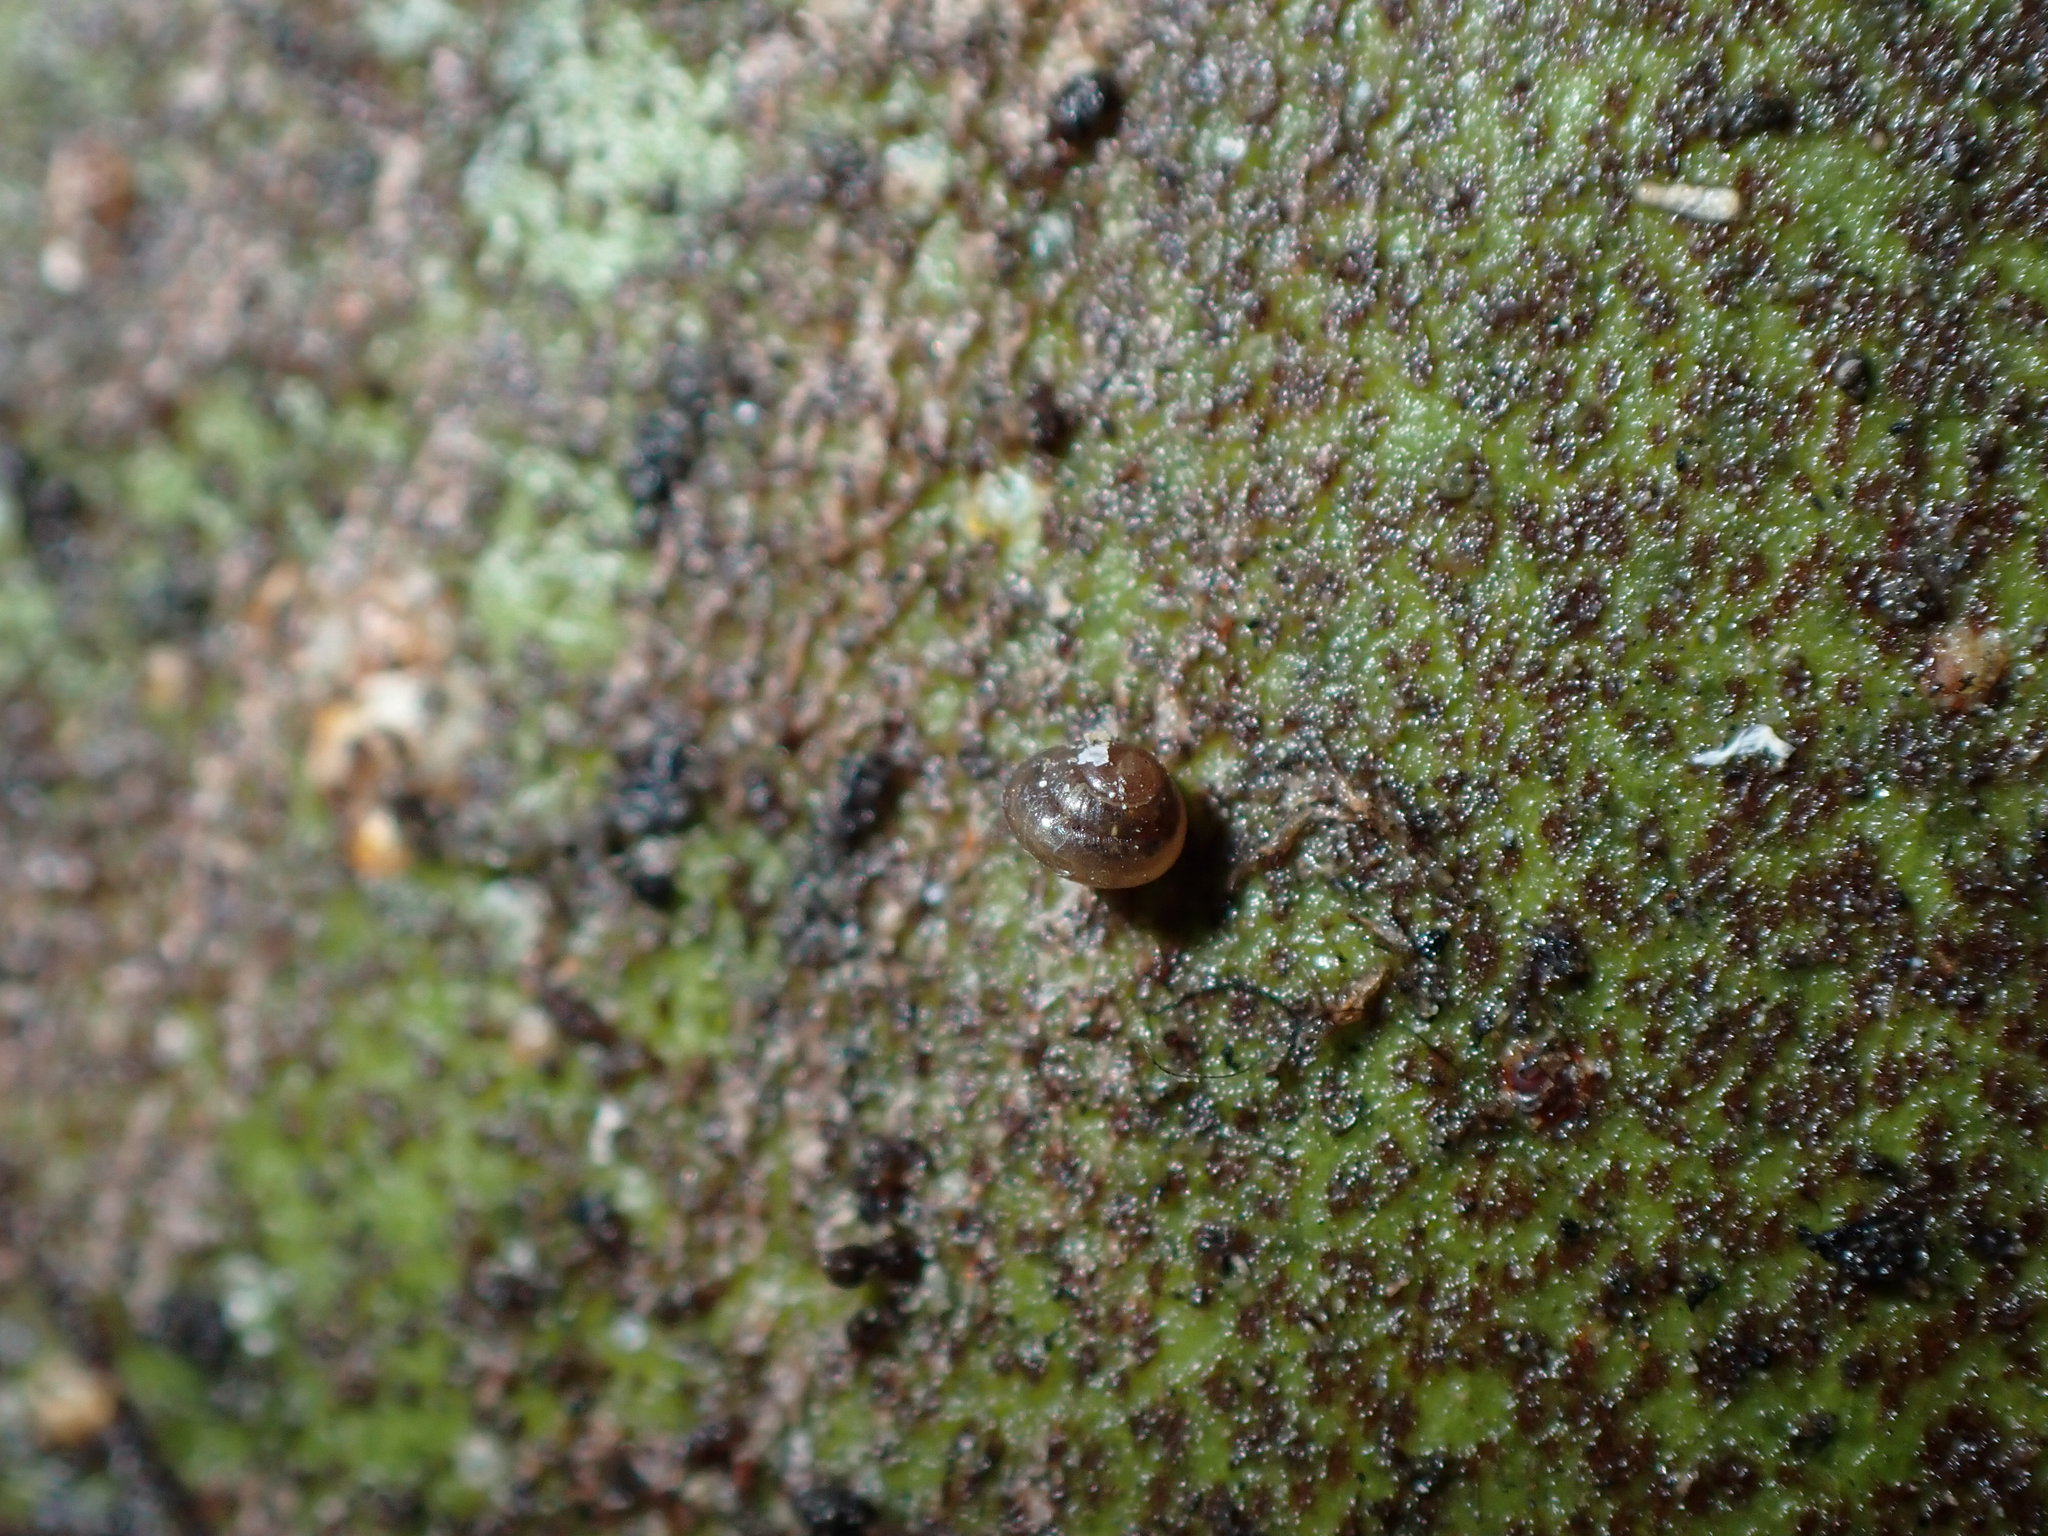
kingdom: Animalia
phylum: Mollusca
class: Gastropoda
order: Stylommatophora
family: Lauriidae
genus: Lauria
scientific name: Lauria cylindracea
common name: Common chrysalis snail
